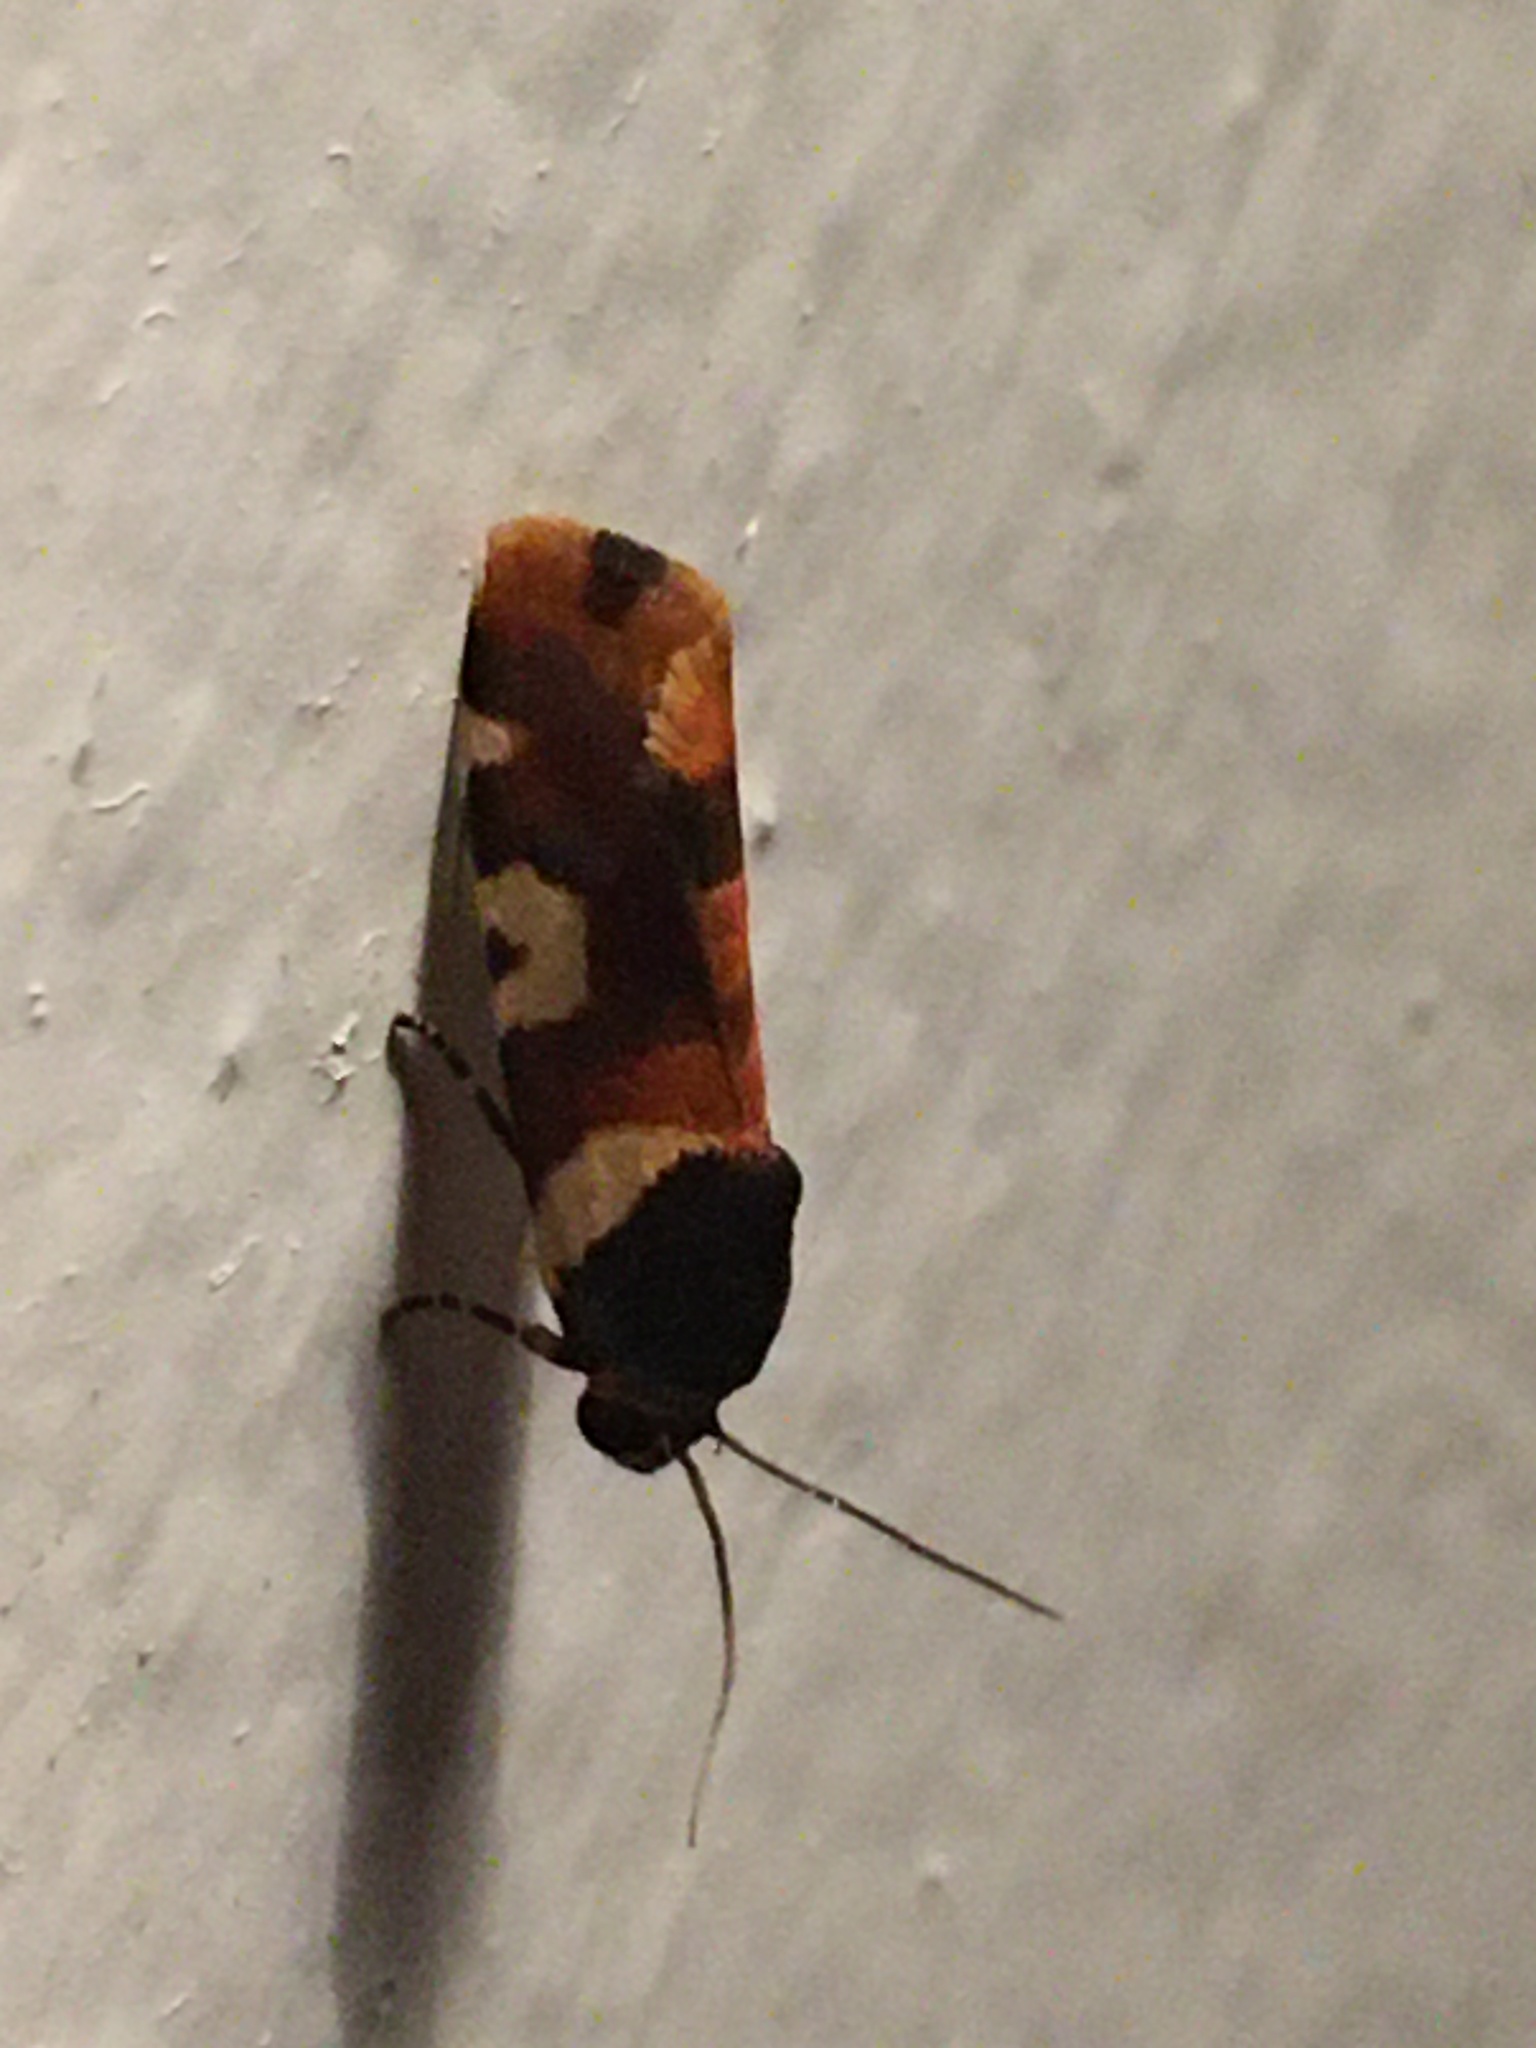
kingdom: Animalia
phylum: Arthropoda
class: Insecta
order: Lepidoptera
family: Noctuidae
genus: Acontia
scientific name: Acontia dama
